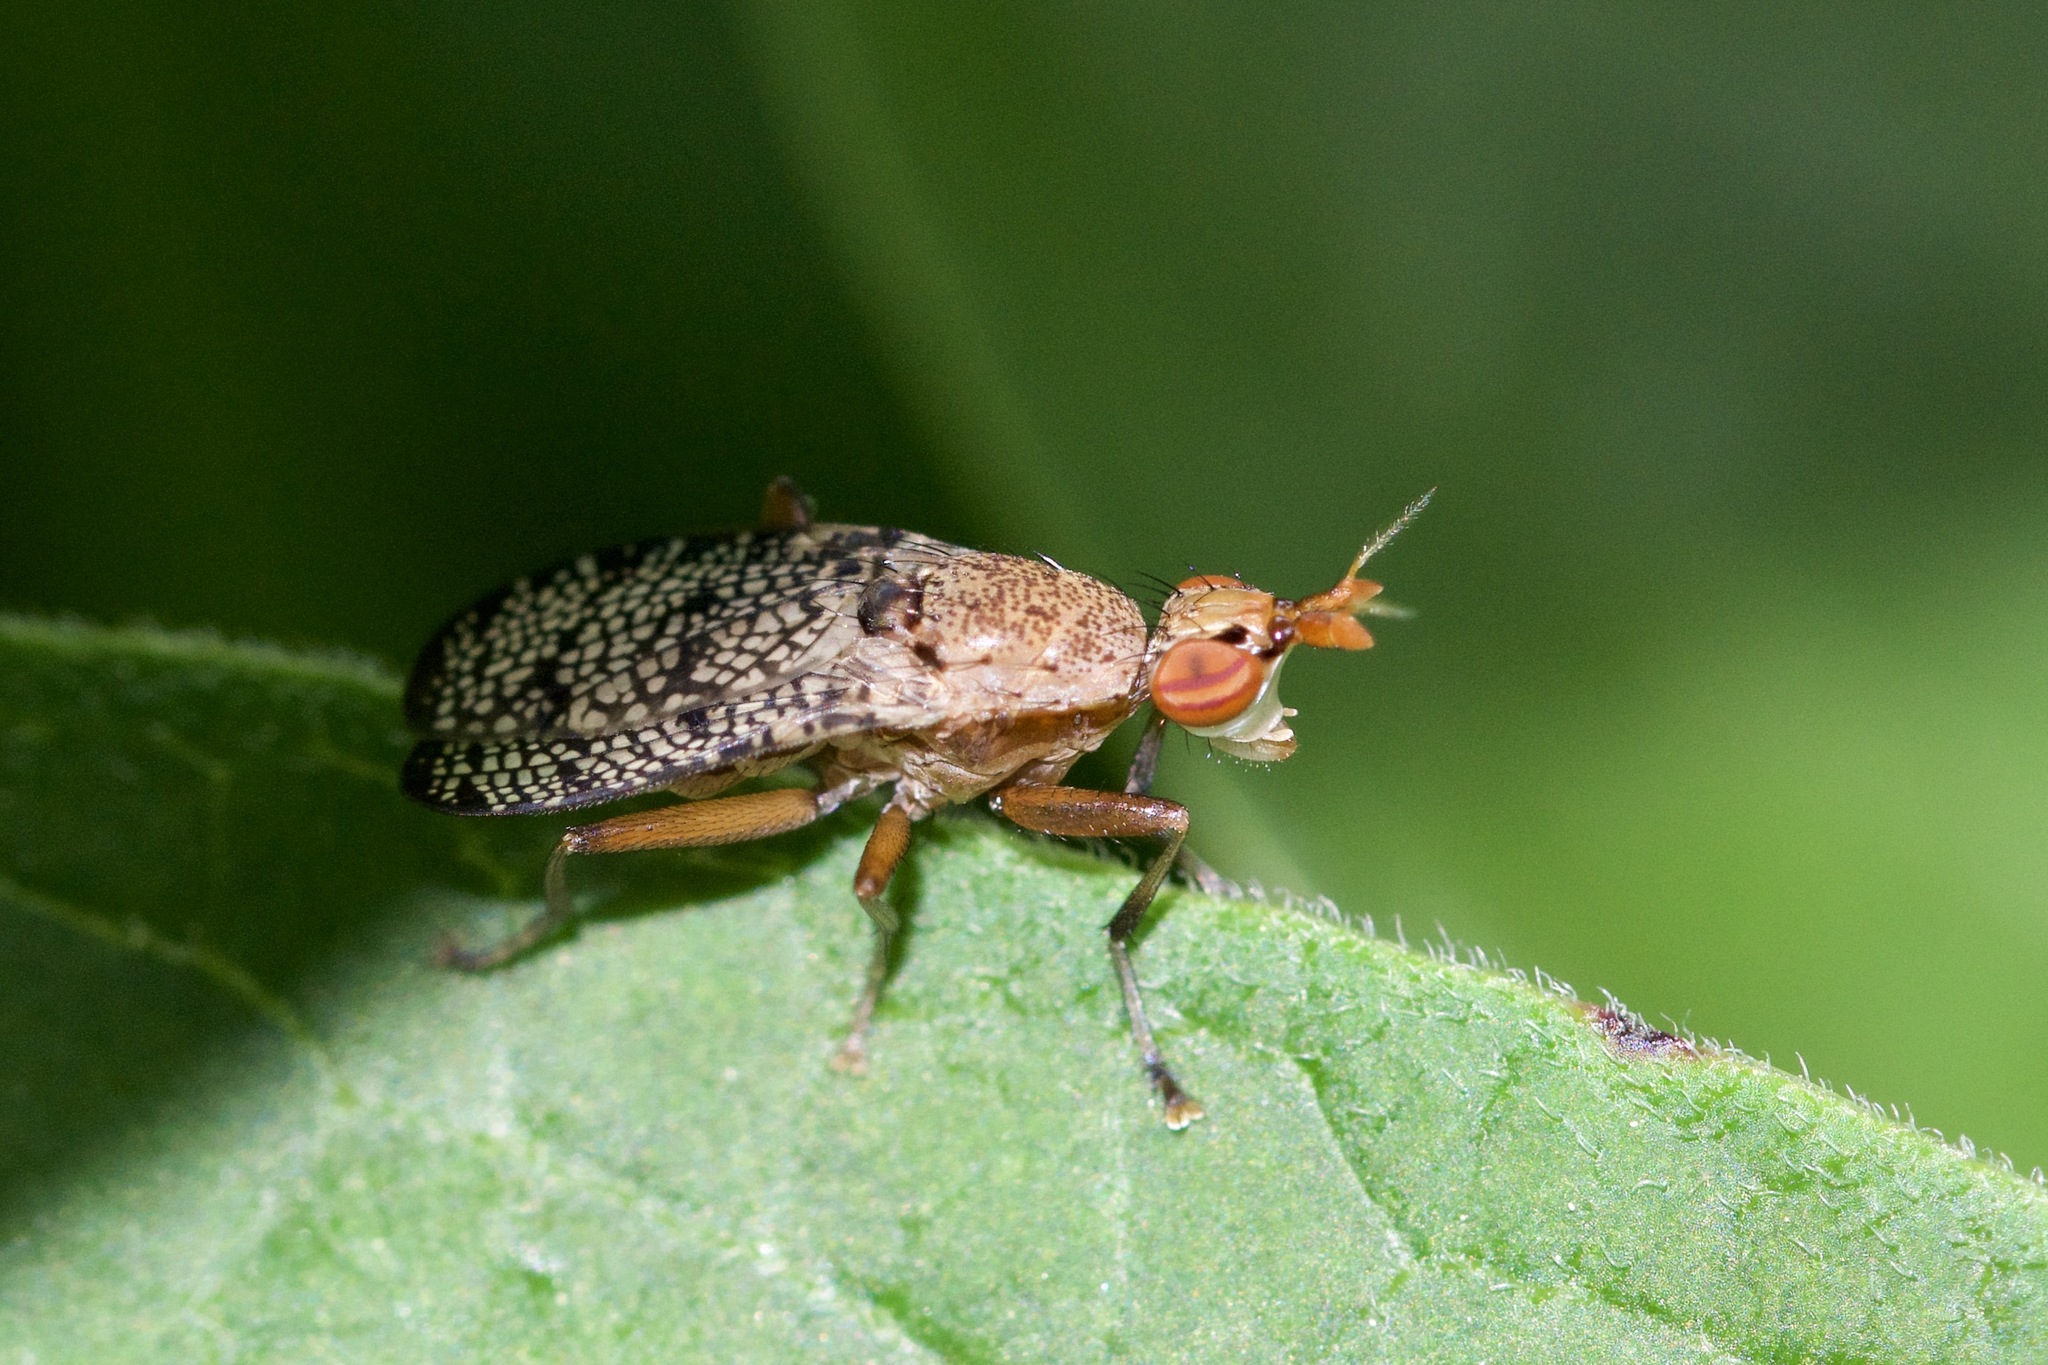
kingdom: Animalia
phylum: Arthropoda
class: Insecta
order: Diptera
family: Sciomyzidae
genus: Euthycera
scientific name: Euthycera flavescens
